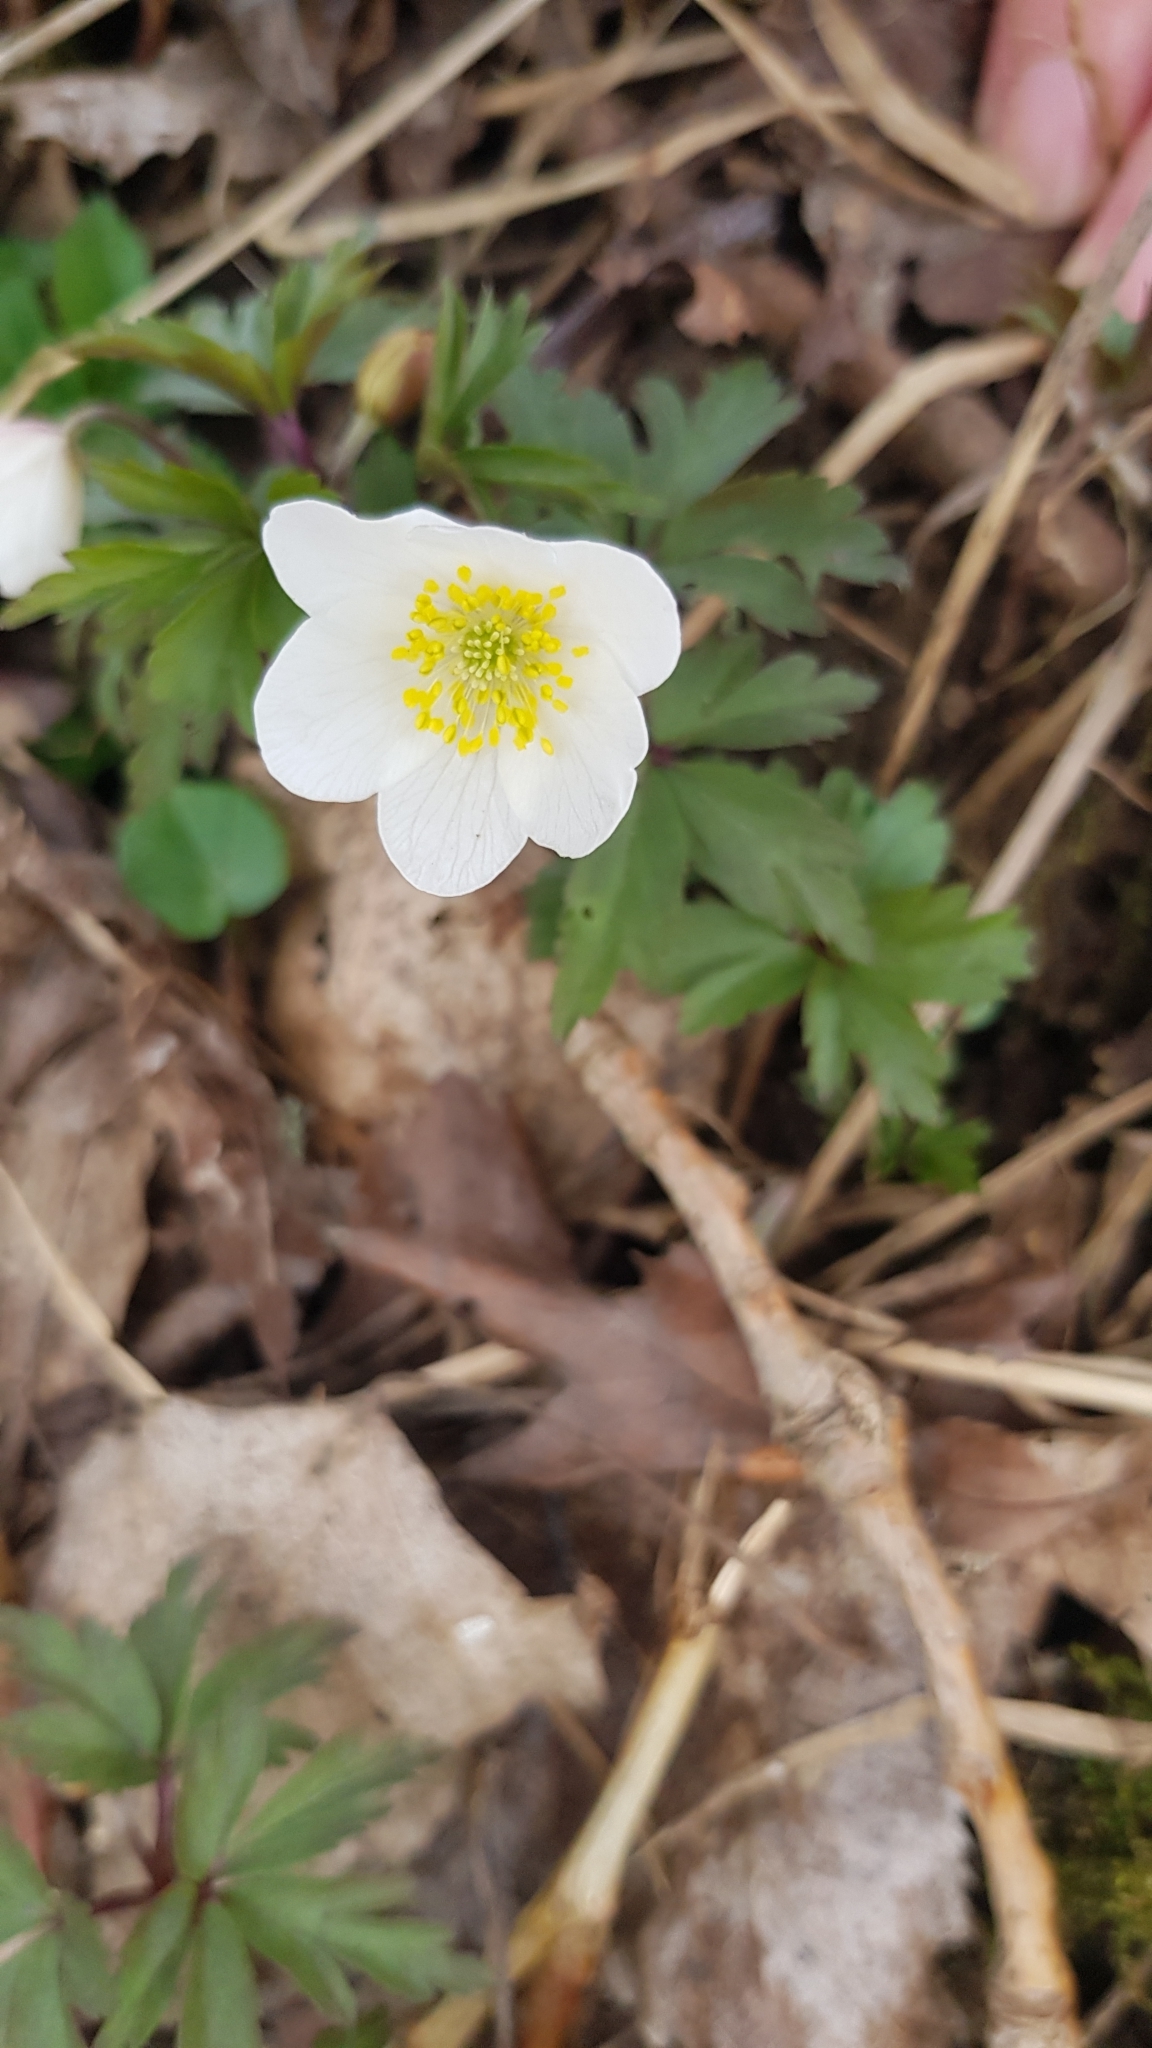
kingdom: Plantae
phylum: Tracheophyta
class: Magnoliopsida
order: Ranunculales
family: Ranunculaceae
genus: Anemone
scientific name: Anemone nemorosa
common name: Wood anemone
